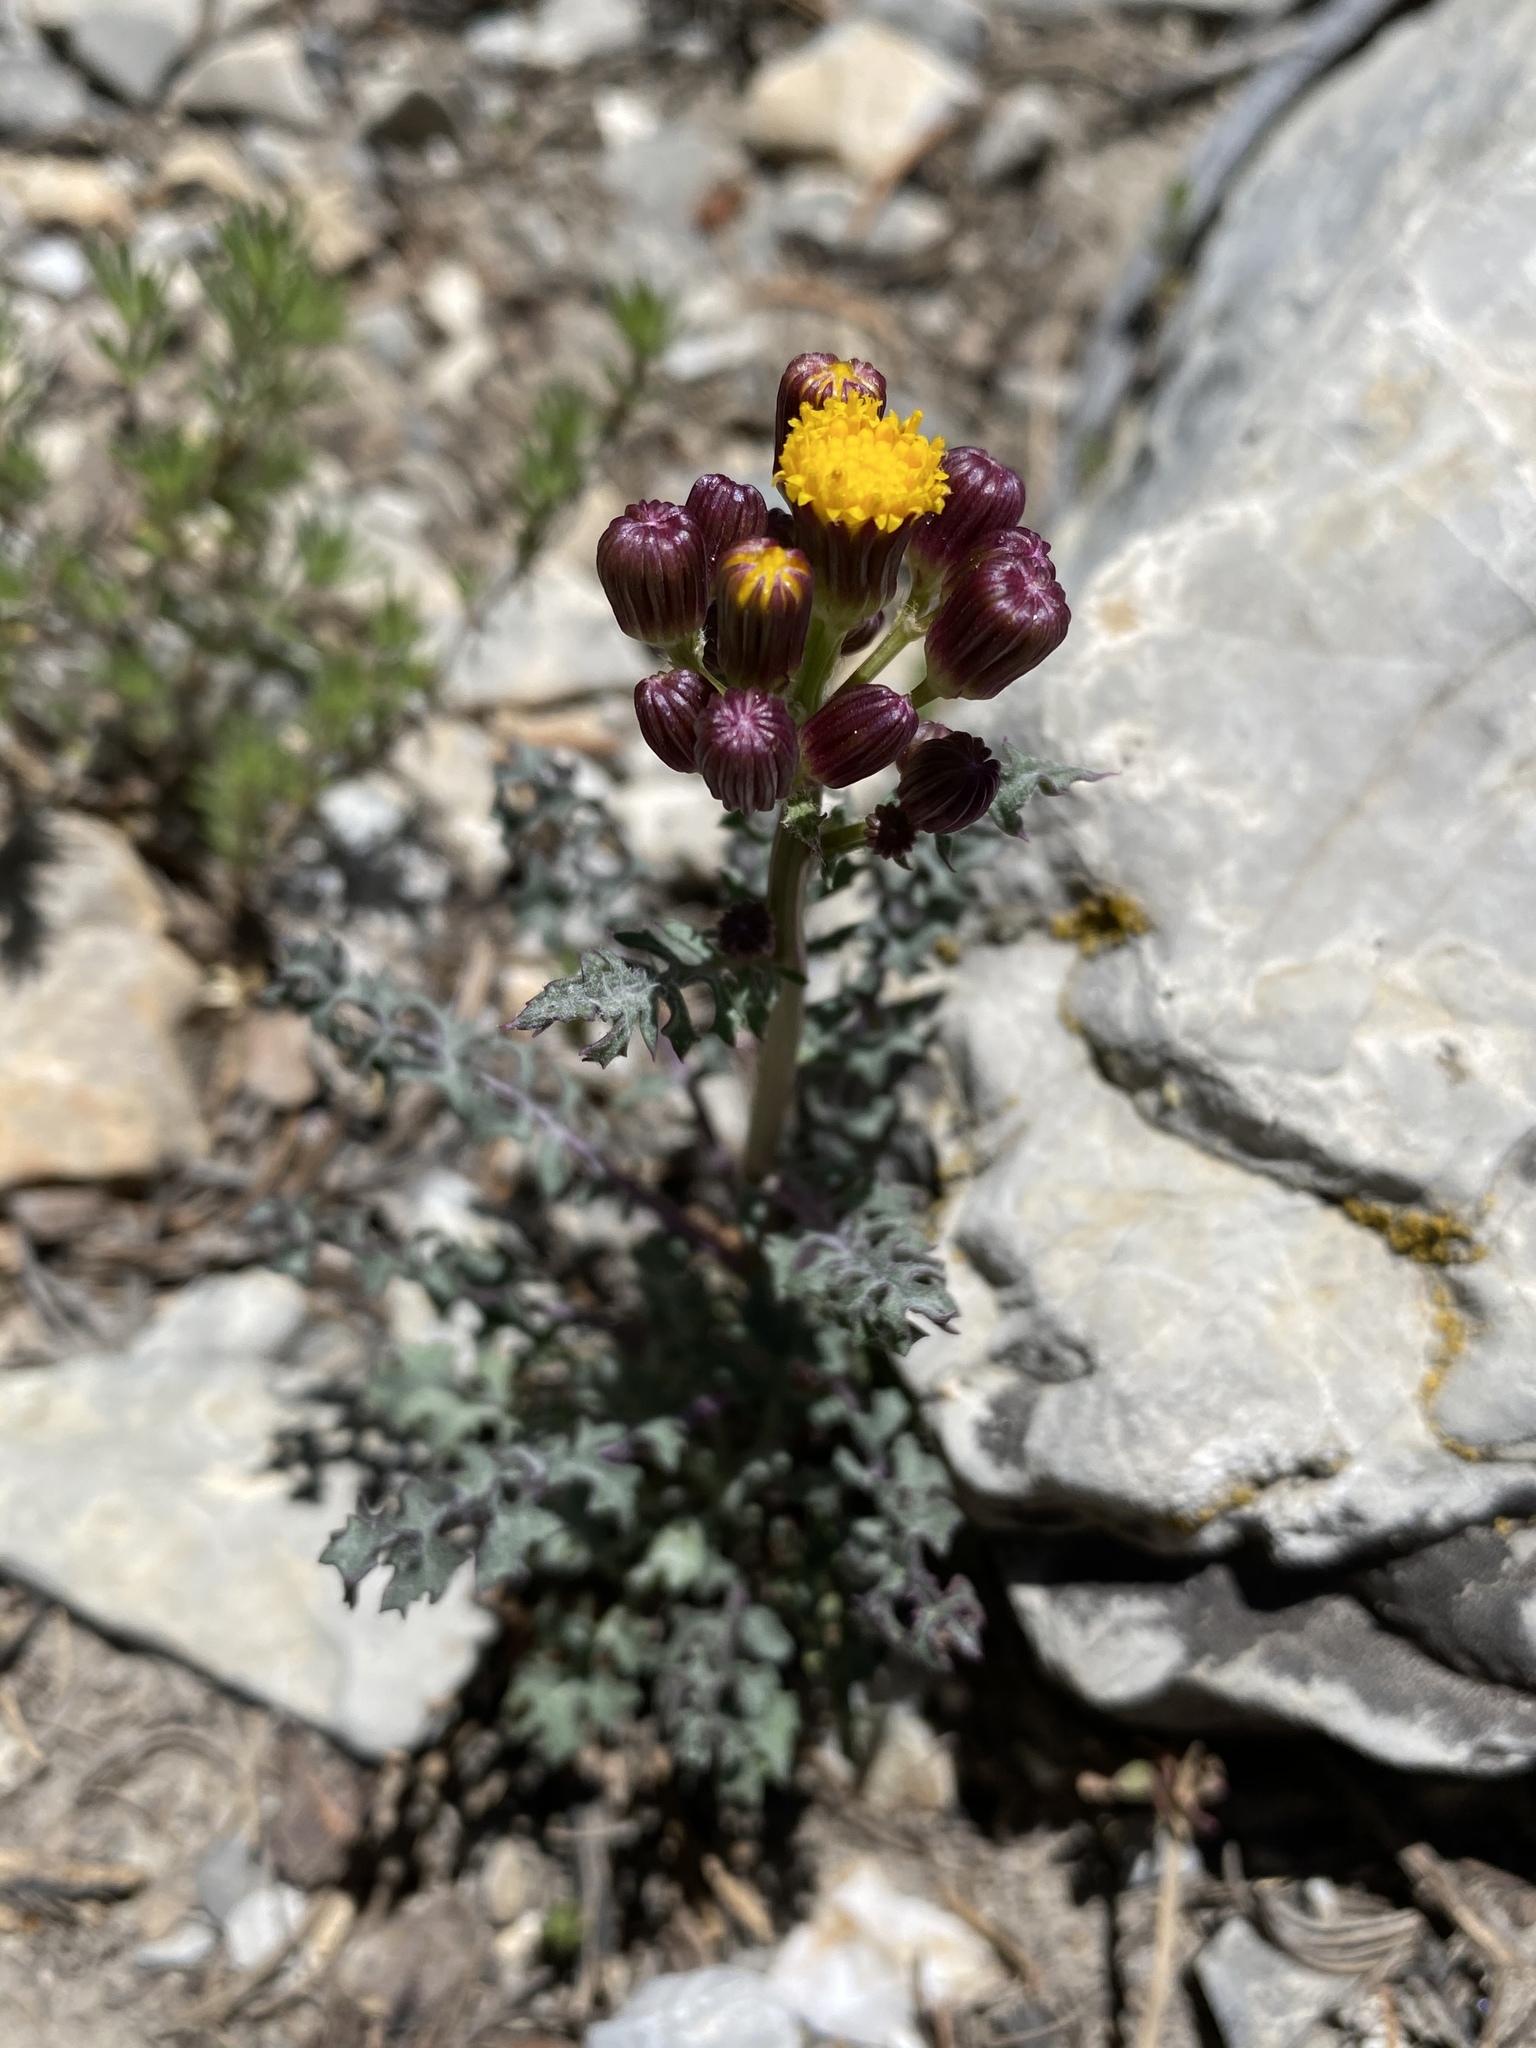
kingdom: Plantae
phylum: Tracheophyta
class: Magnoliopsida
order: Asterales
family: Asteraceae
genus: Packera
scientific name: Packera multilobata
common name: Lobe-leaf groundsel
